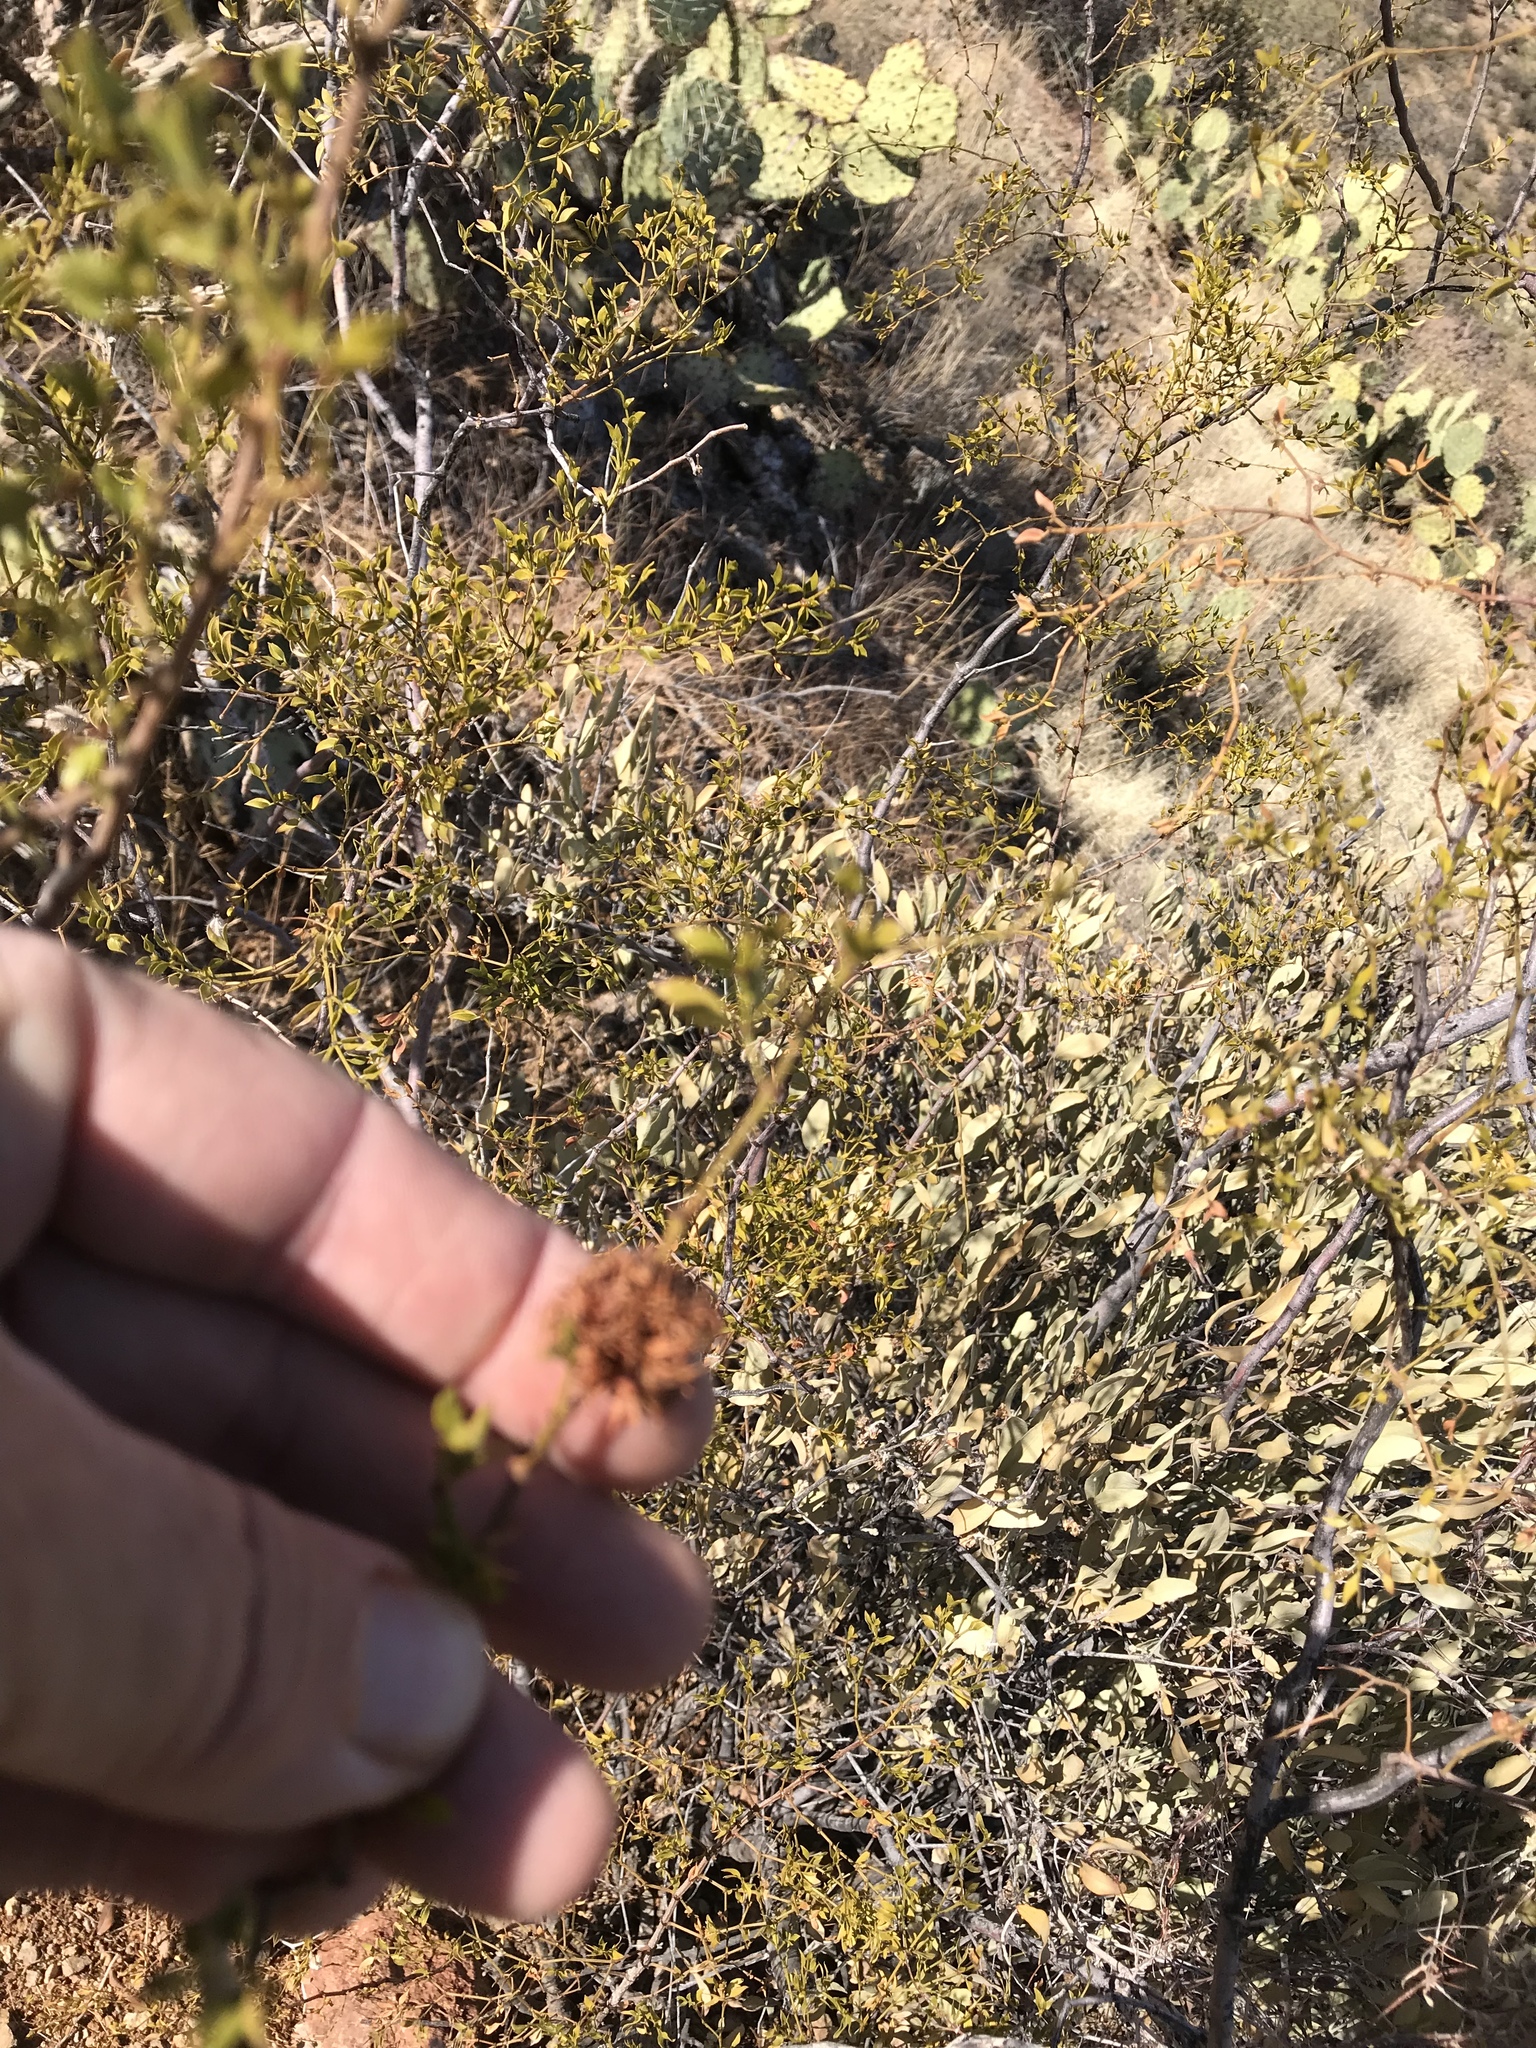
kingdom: Animalia
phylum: Arthropoda
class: Insecta
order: Diptera
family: Cecidomyiidae
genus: Asphondylia
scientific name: Asphondylia auripila
